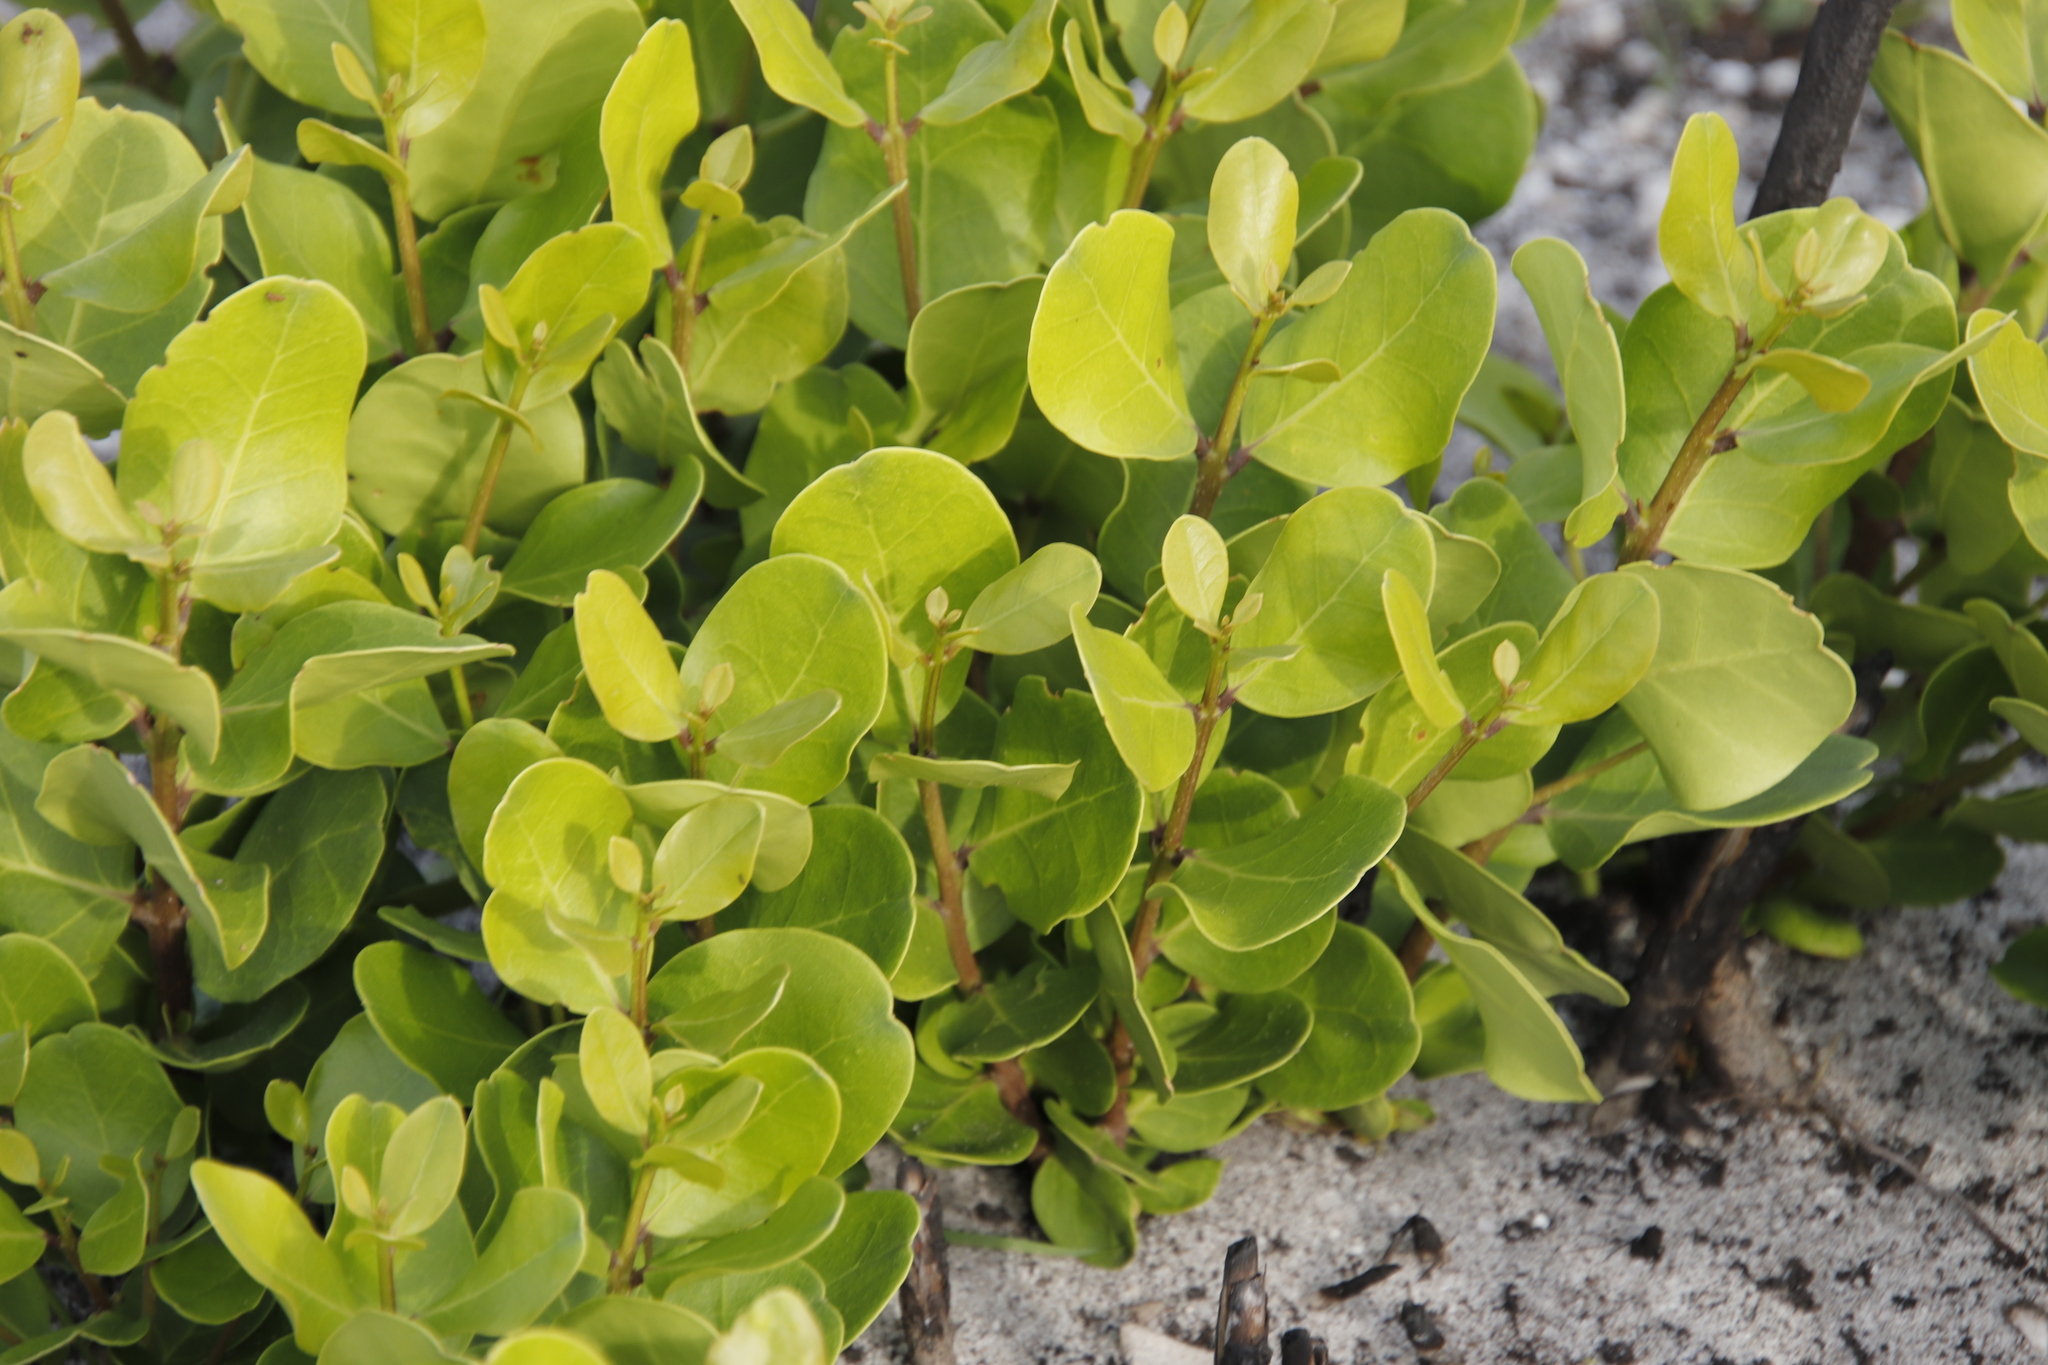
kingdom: Plantae
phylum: Tracheophyta
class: Magnoliopsida
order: Lamiales
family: Oleaceae
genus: Olea
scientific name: Olea capensis
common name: Black ironwood
